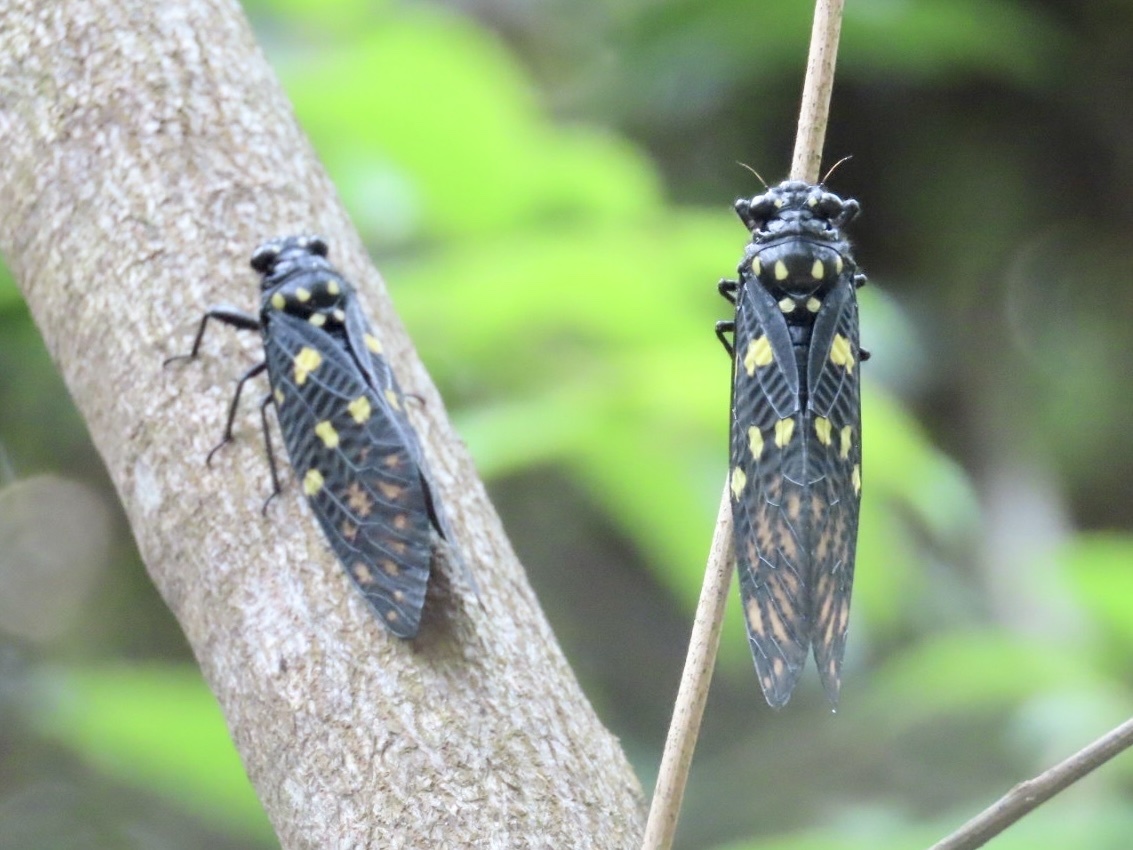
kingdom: Animalia
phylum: Arthropoda
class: Insecta
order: Hemiptera
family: Cicadidae
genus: Gaeana
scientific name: Gaeana maculata
